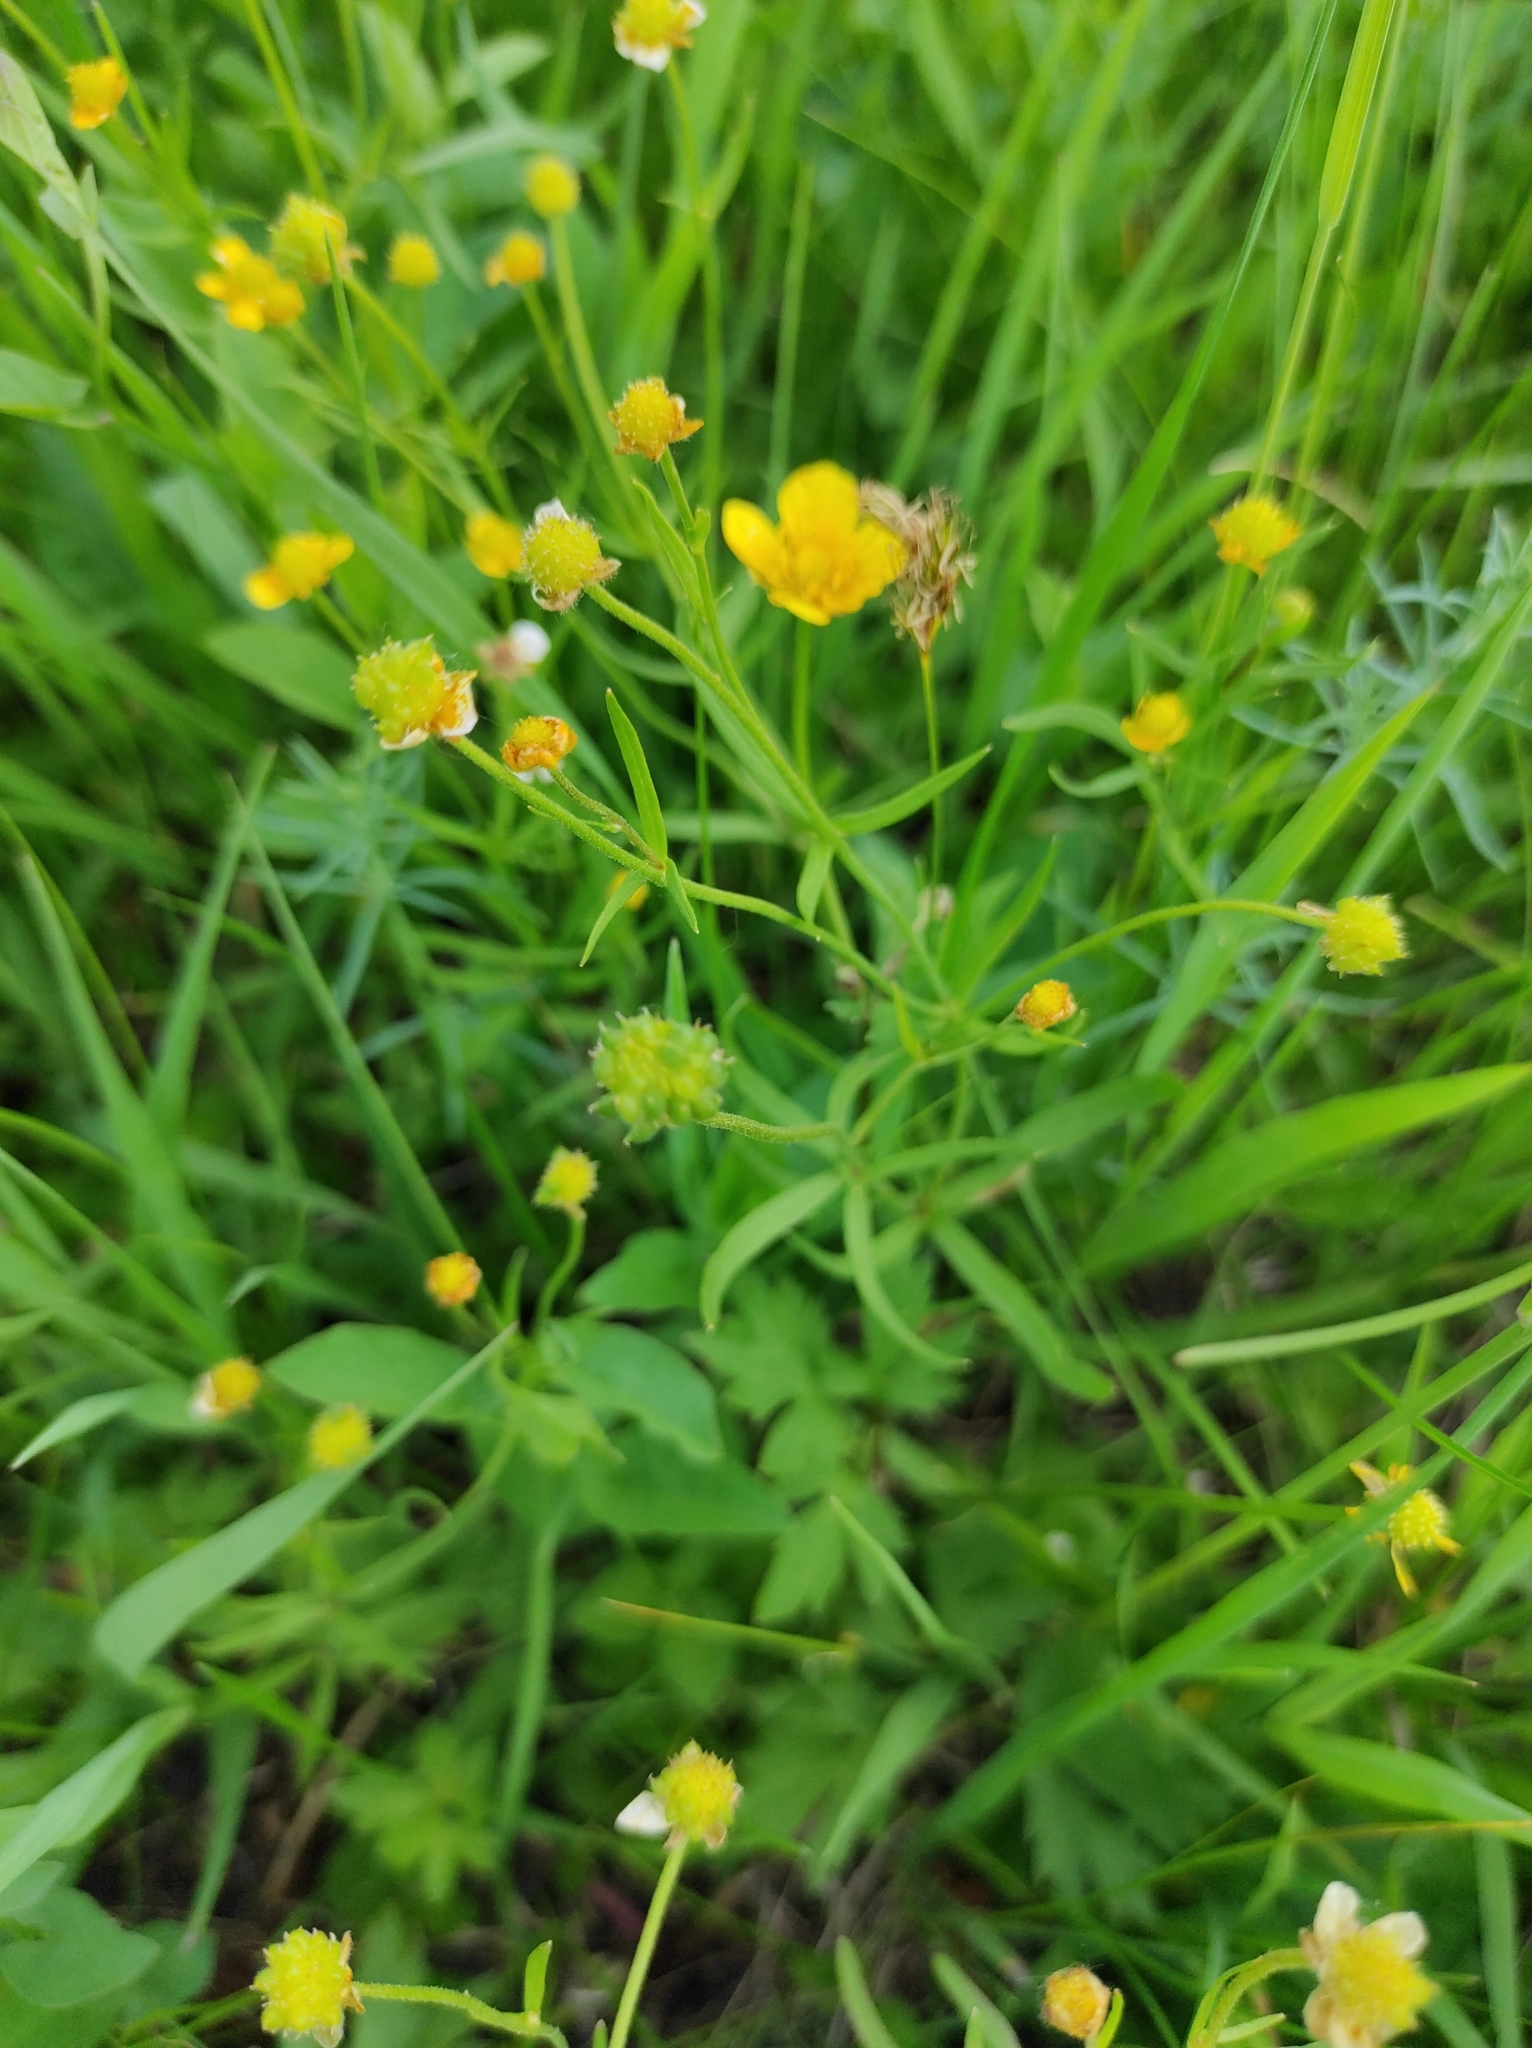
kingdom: Plantae
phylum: Tracheophyta
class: Magnoliopsida
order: Ranunculales
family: Ranunculaceae
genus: Ranunculus
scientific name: Ranunculus auricomus
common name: Goldilocks buttercup
